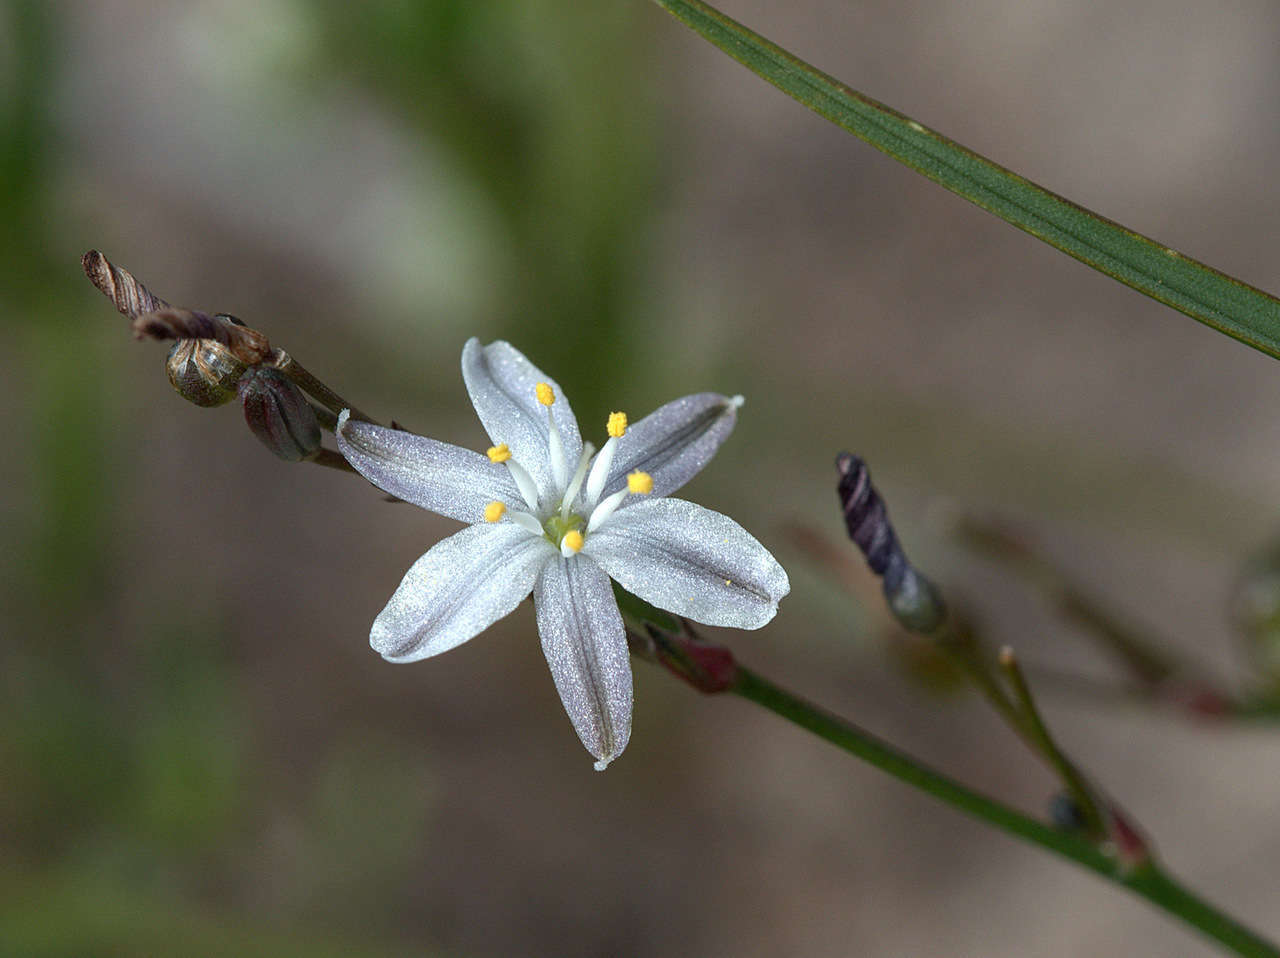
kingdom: Plantae
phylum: Tracheophyta
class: Liliopsida
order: Asparagales
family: Asphodelaceae
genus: Caesia
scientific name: Caesia parviflora
